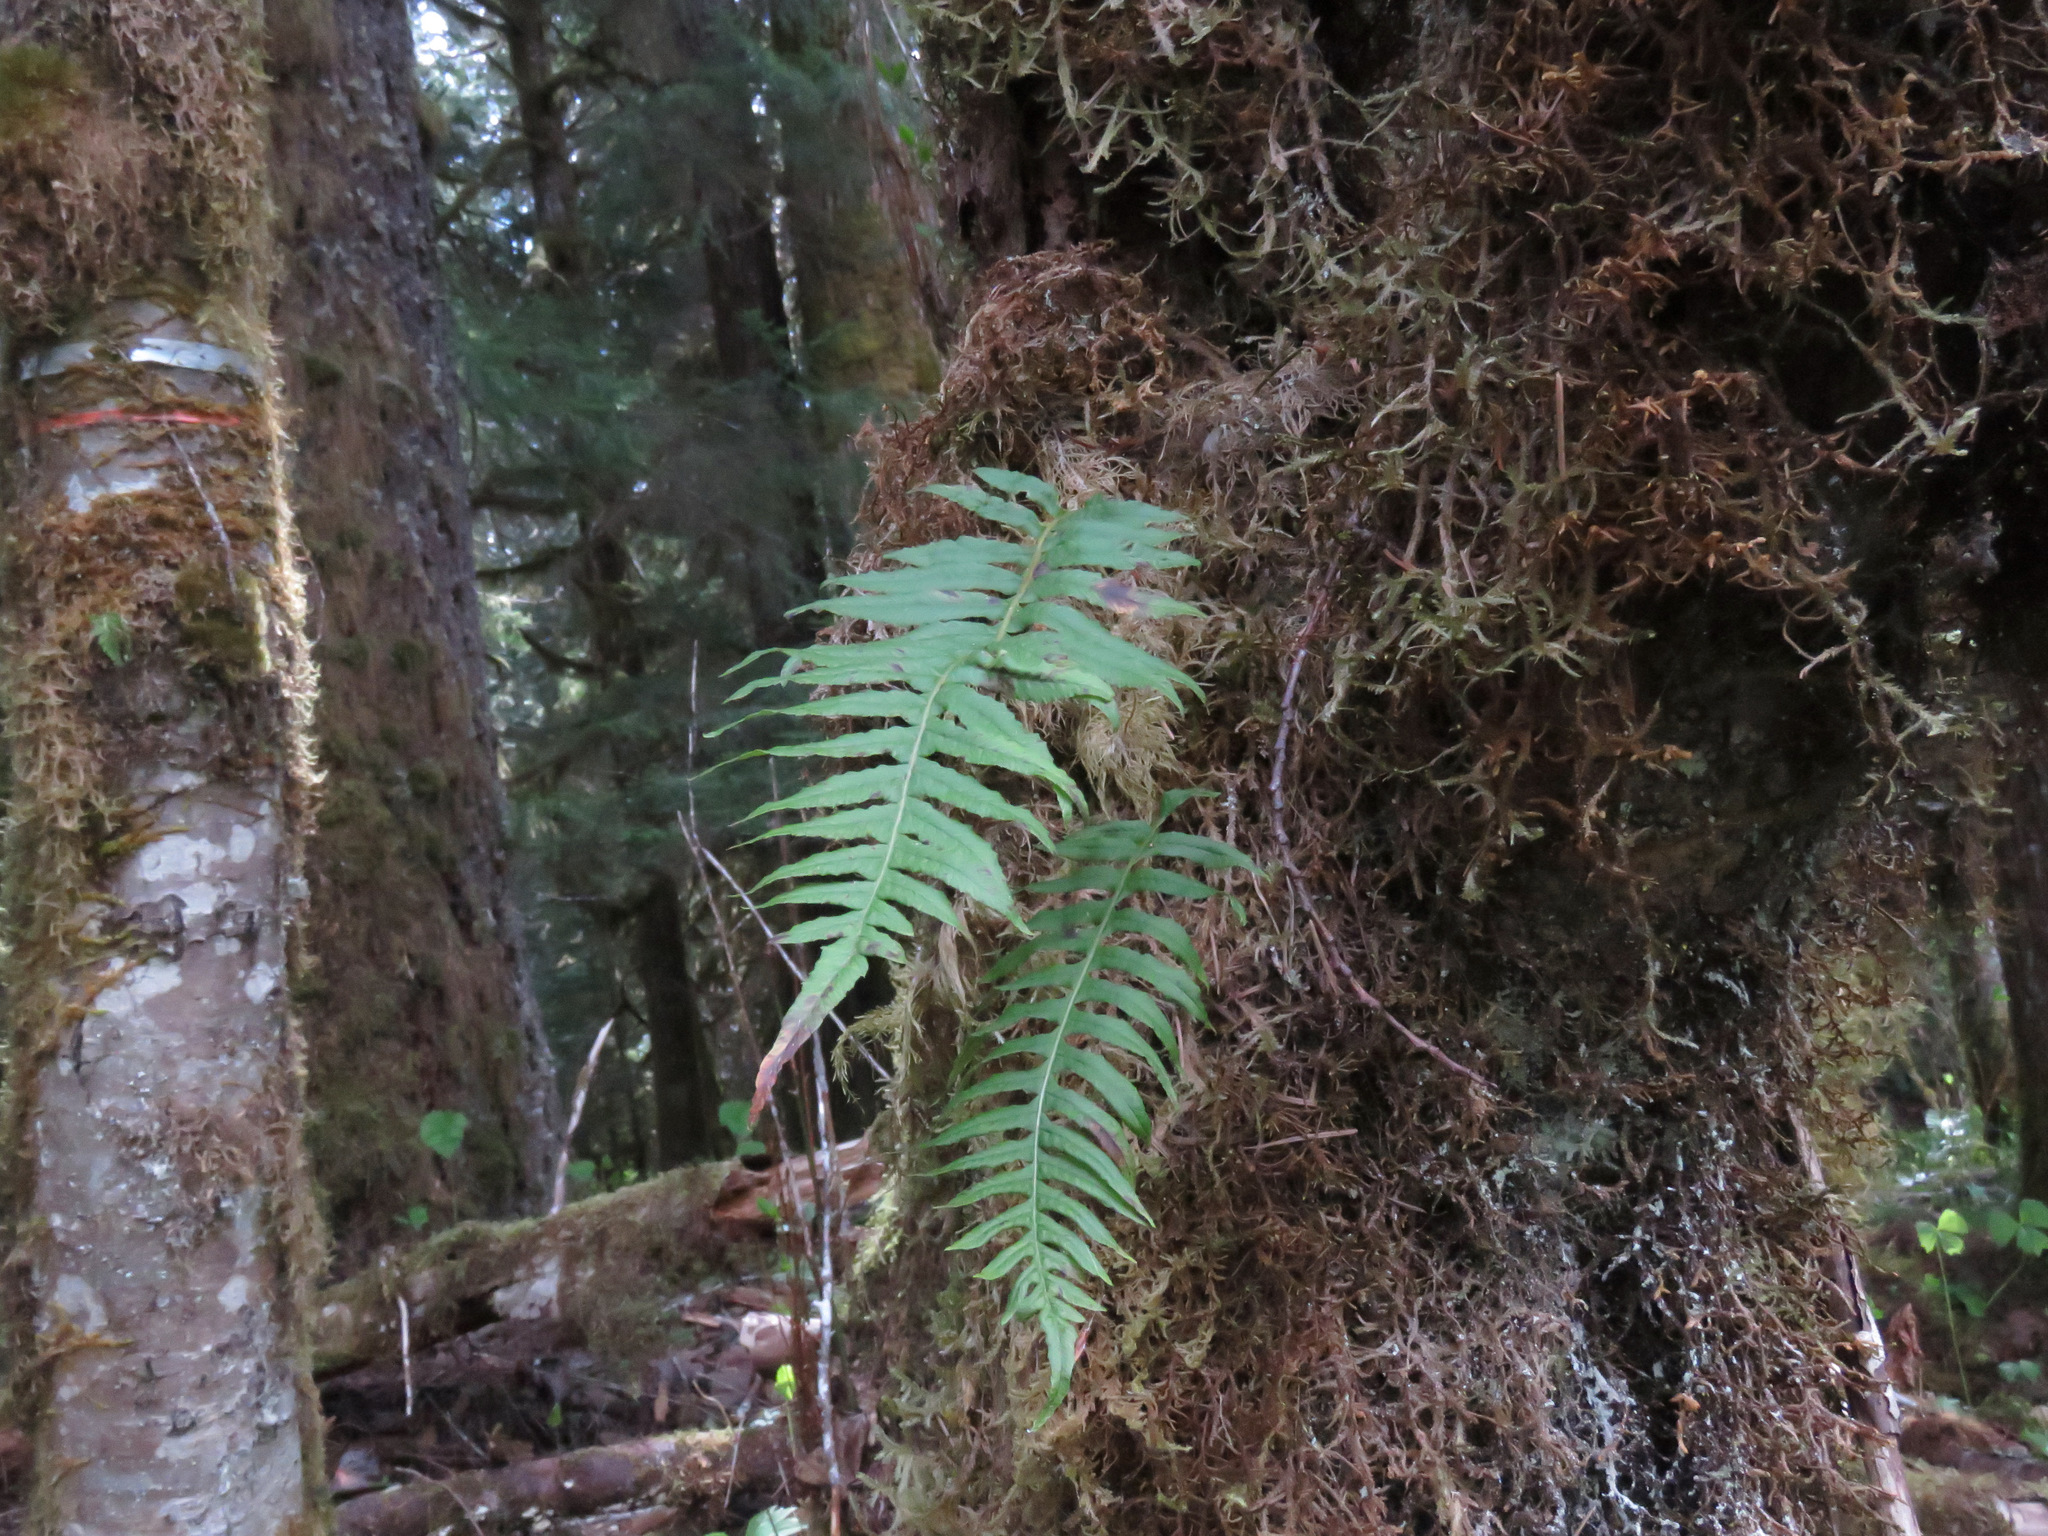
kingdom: Plantae
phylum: Tracheophyta
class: Polypodiopsida
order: Polypodiales
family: Polypodiaceae
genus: Polypodium
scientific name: Polypodium glycyrrhiza
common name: Licorice fern
